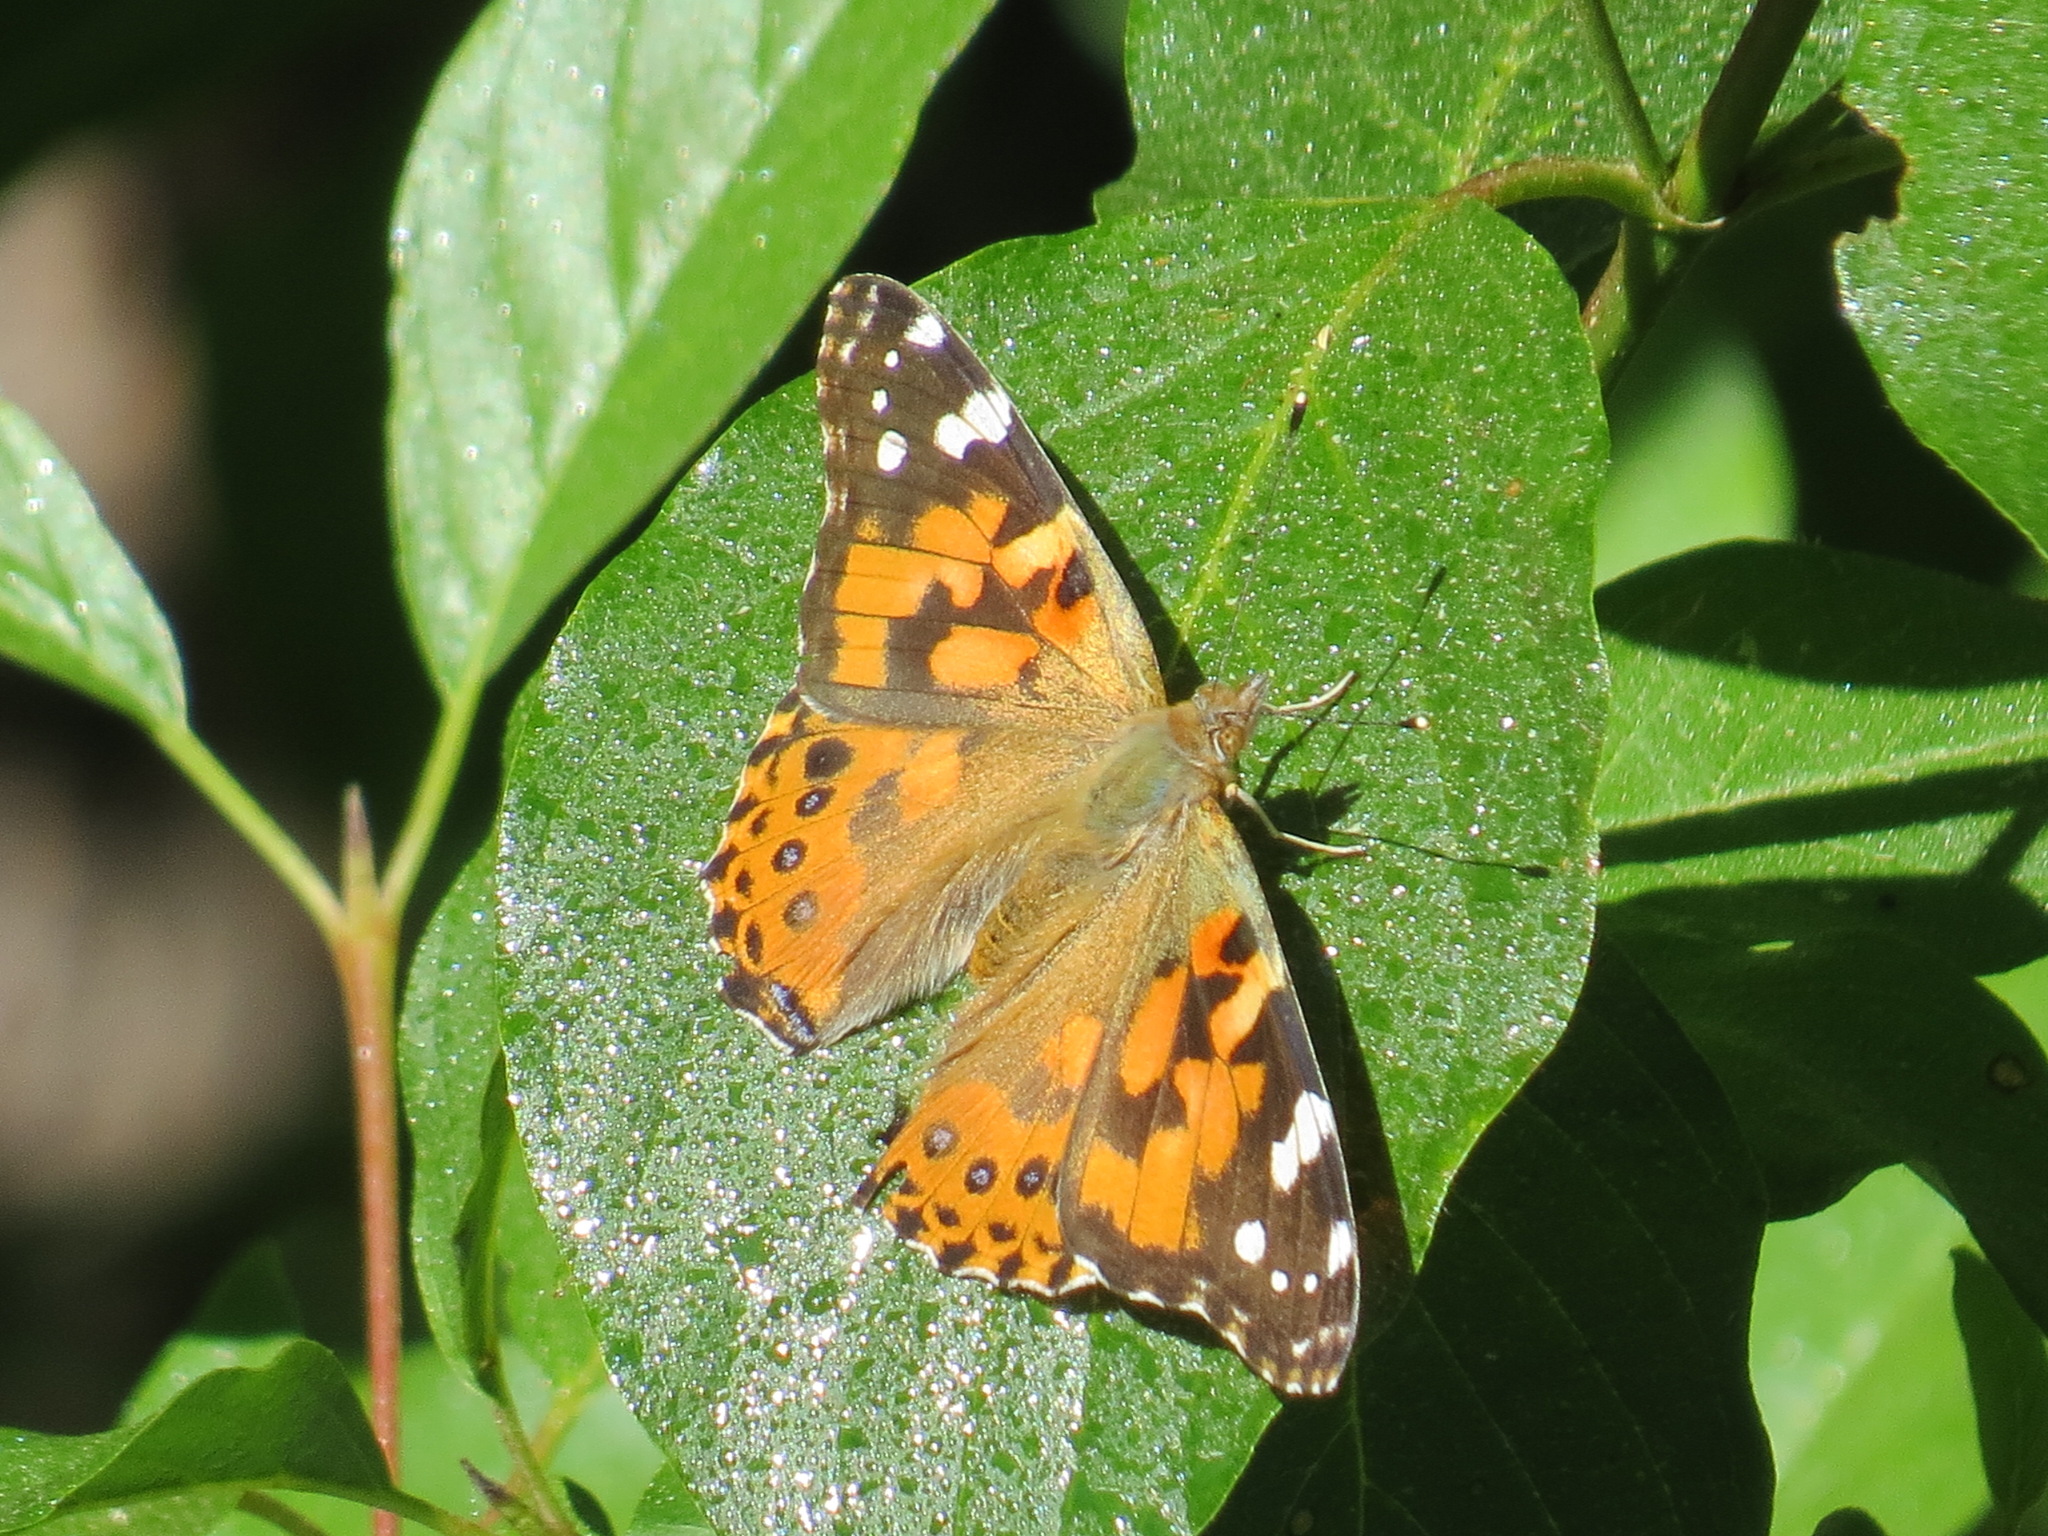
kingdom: Animalia
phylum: Arthropoda
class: Insecta
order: Lepidoptera
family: Nymphalidae
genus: Vanessa
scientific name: Vanessa cardui
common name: Painted lady
